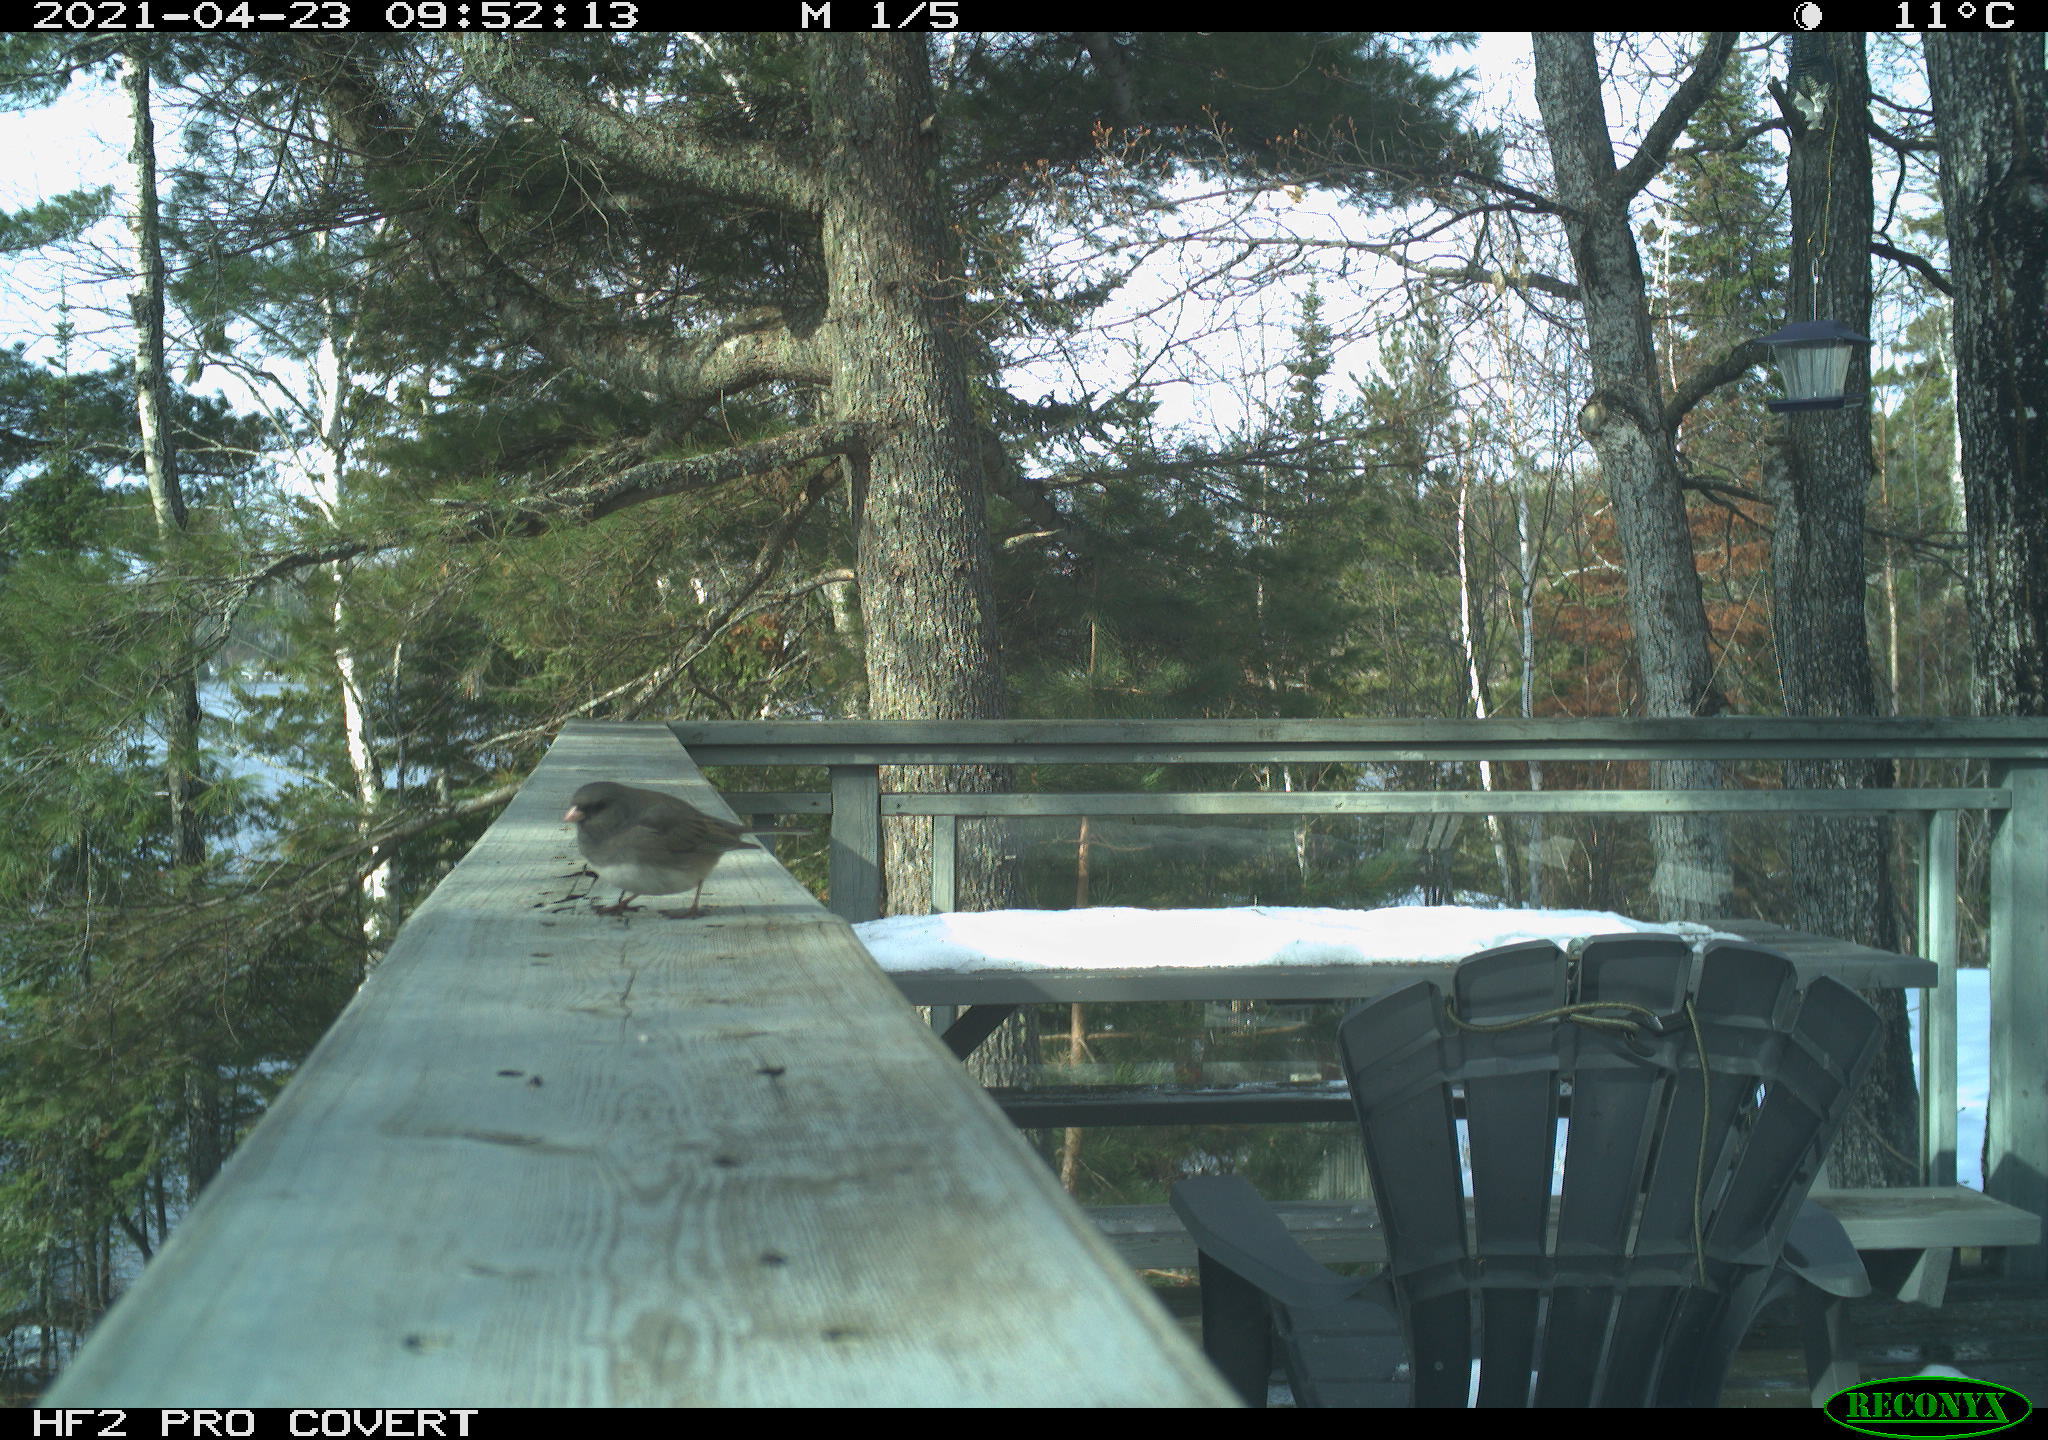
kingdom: Animalia
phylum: Chordata
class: Aves
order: Passeriformes
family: Passerellidae
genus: Junco
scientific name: Junco hyemalis
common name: Dark-eyed junco
